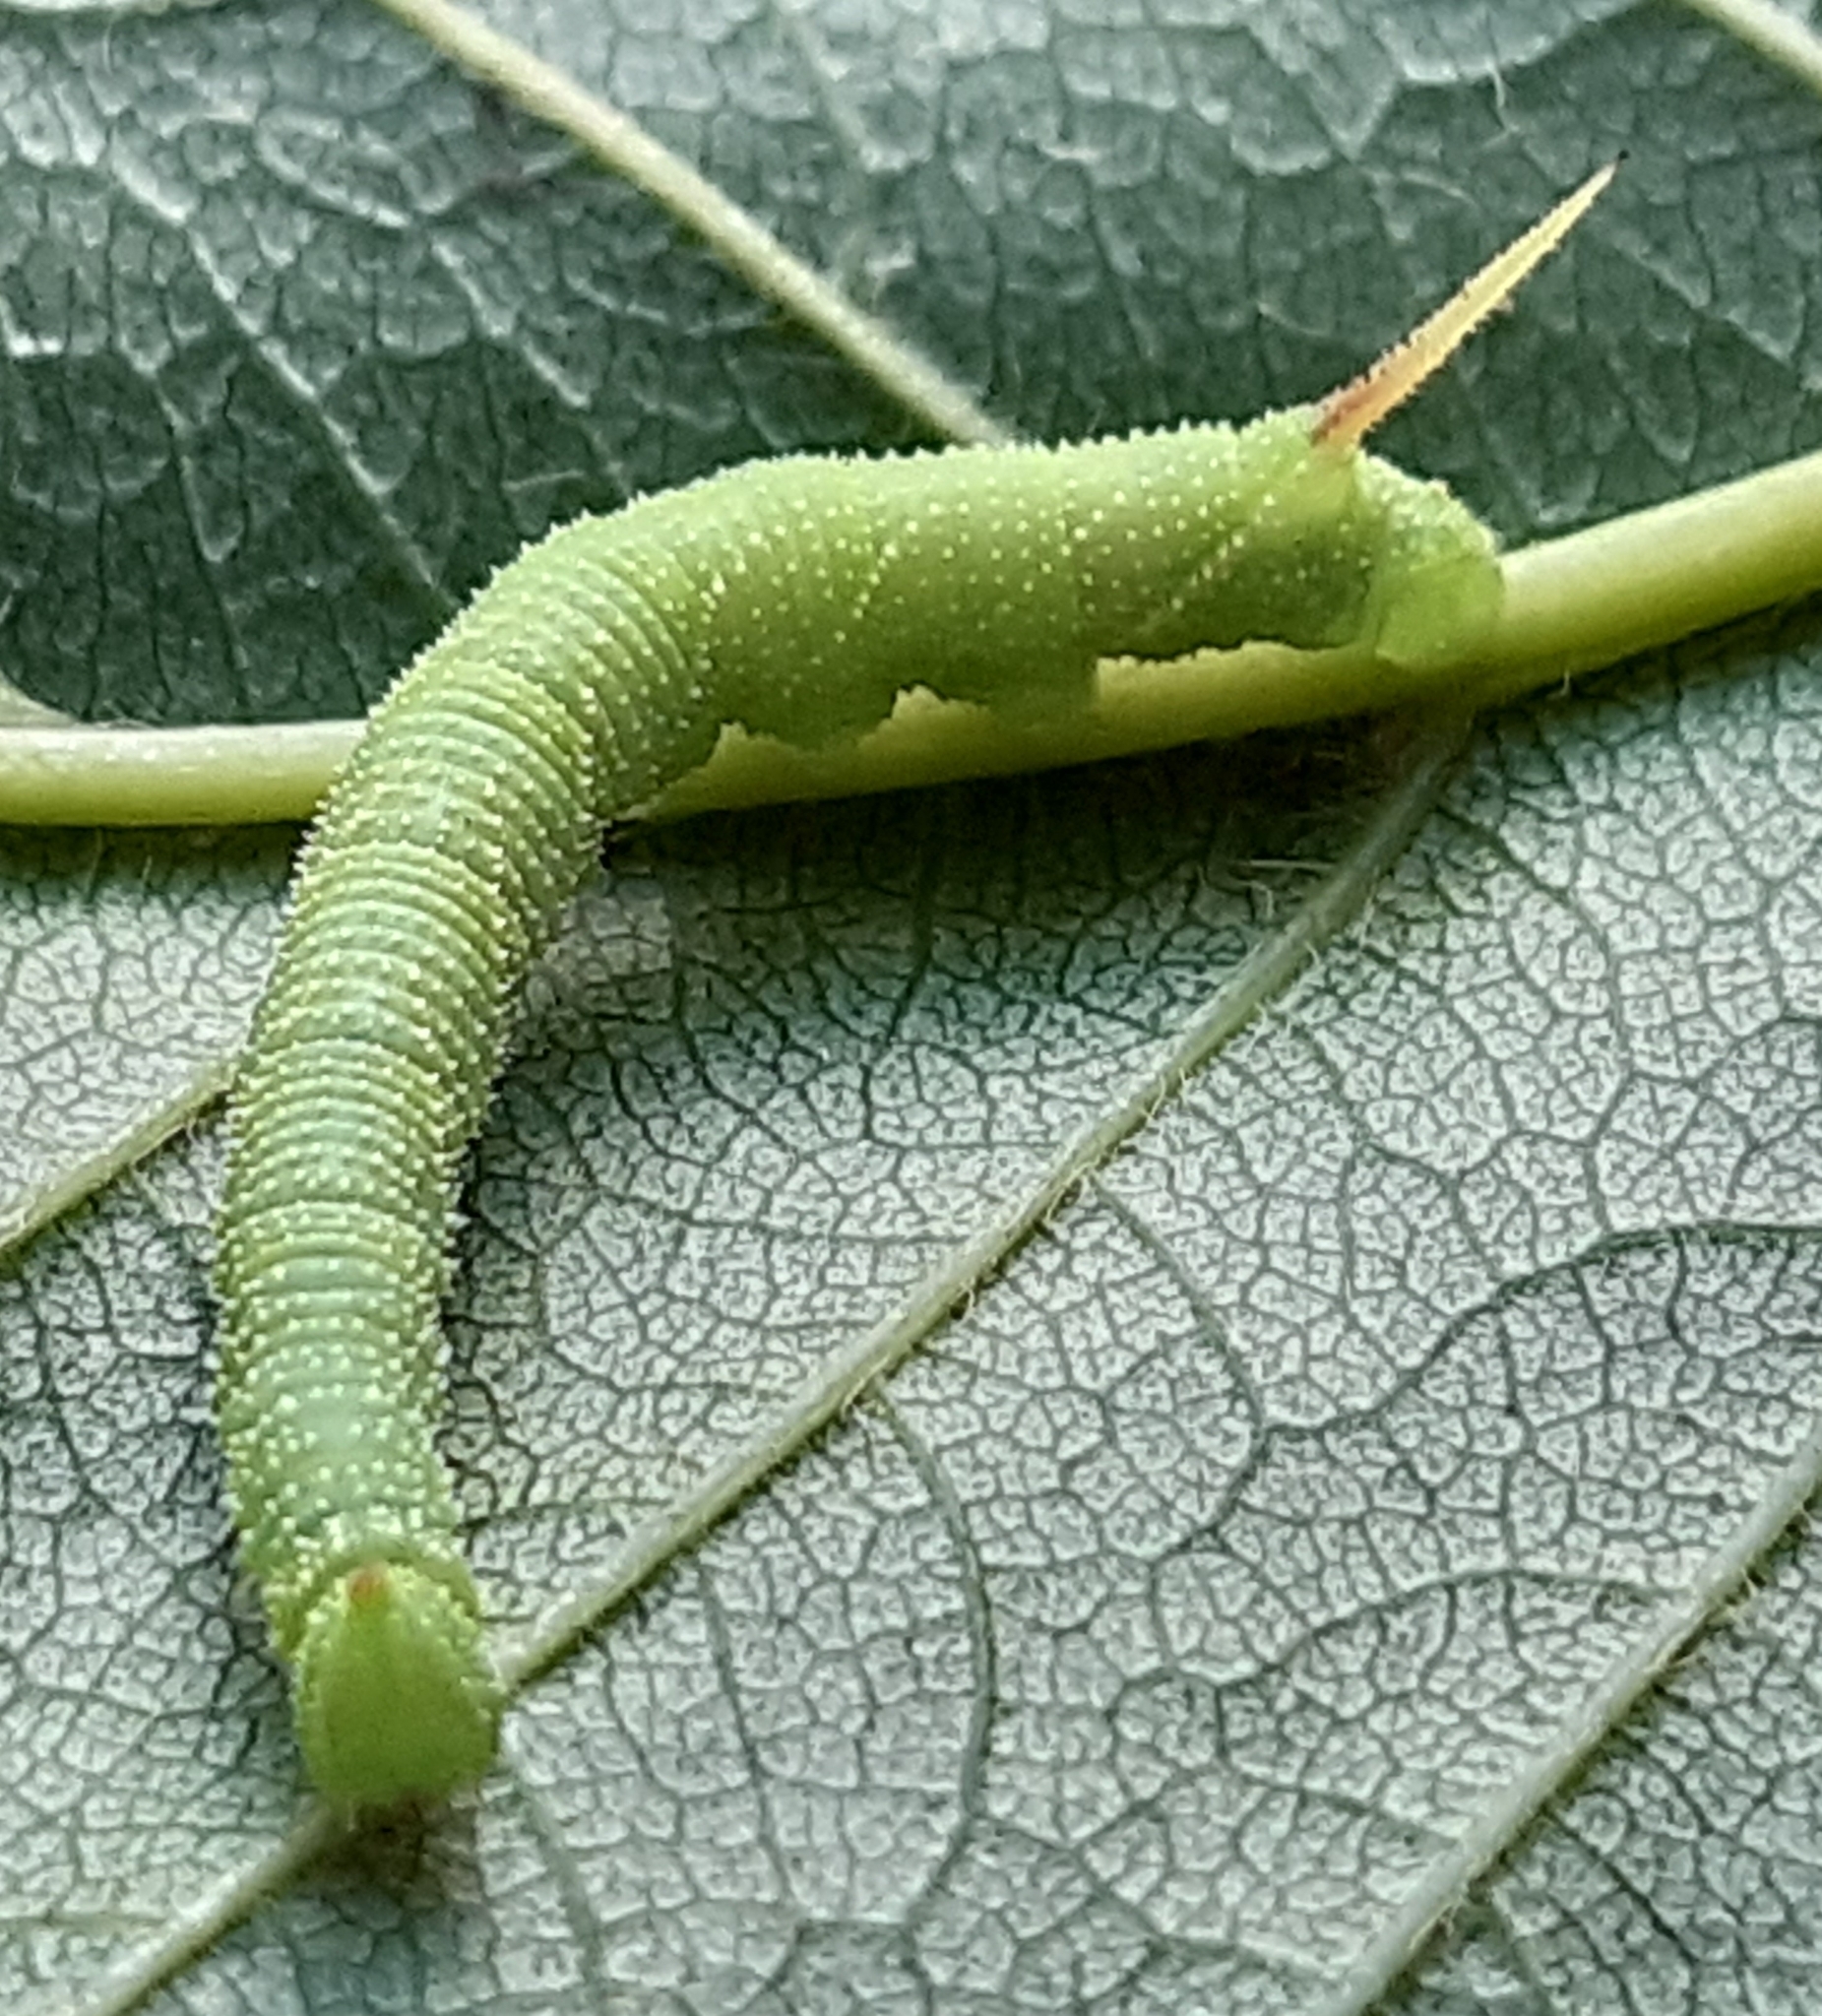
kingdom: Animalia
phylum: Arthropoda
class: Insecta
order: Lepidoptera
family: Sphingidae
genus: Mimas
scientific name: Mimas tiliae
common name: Lime hawk-moth
